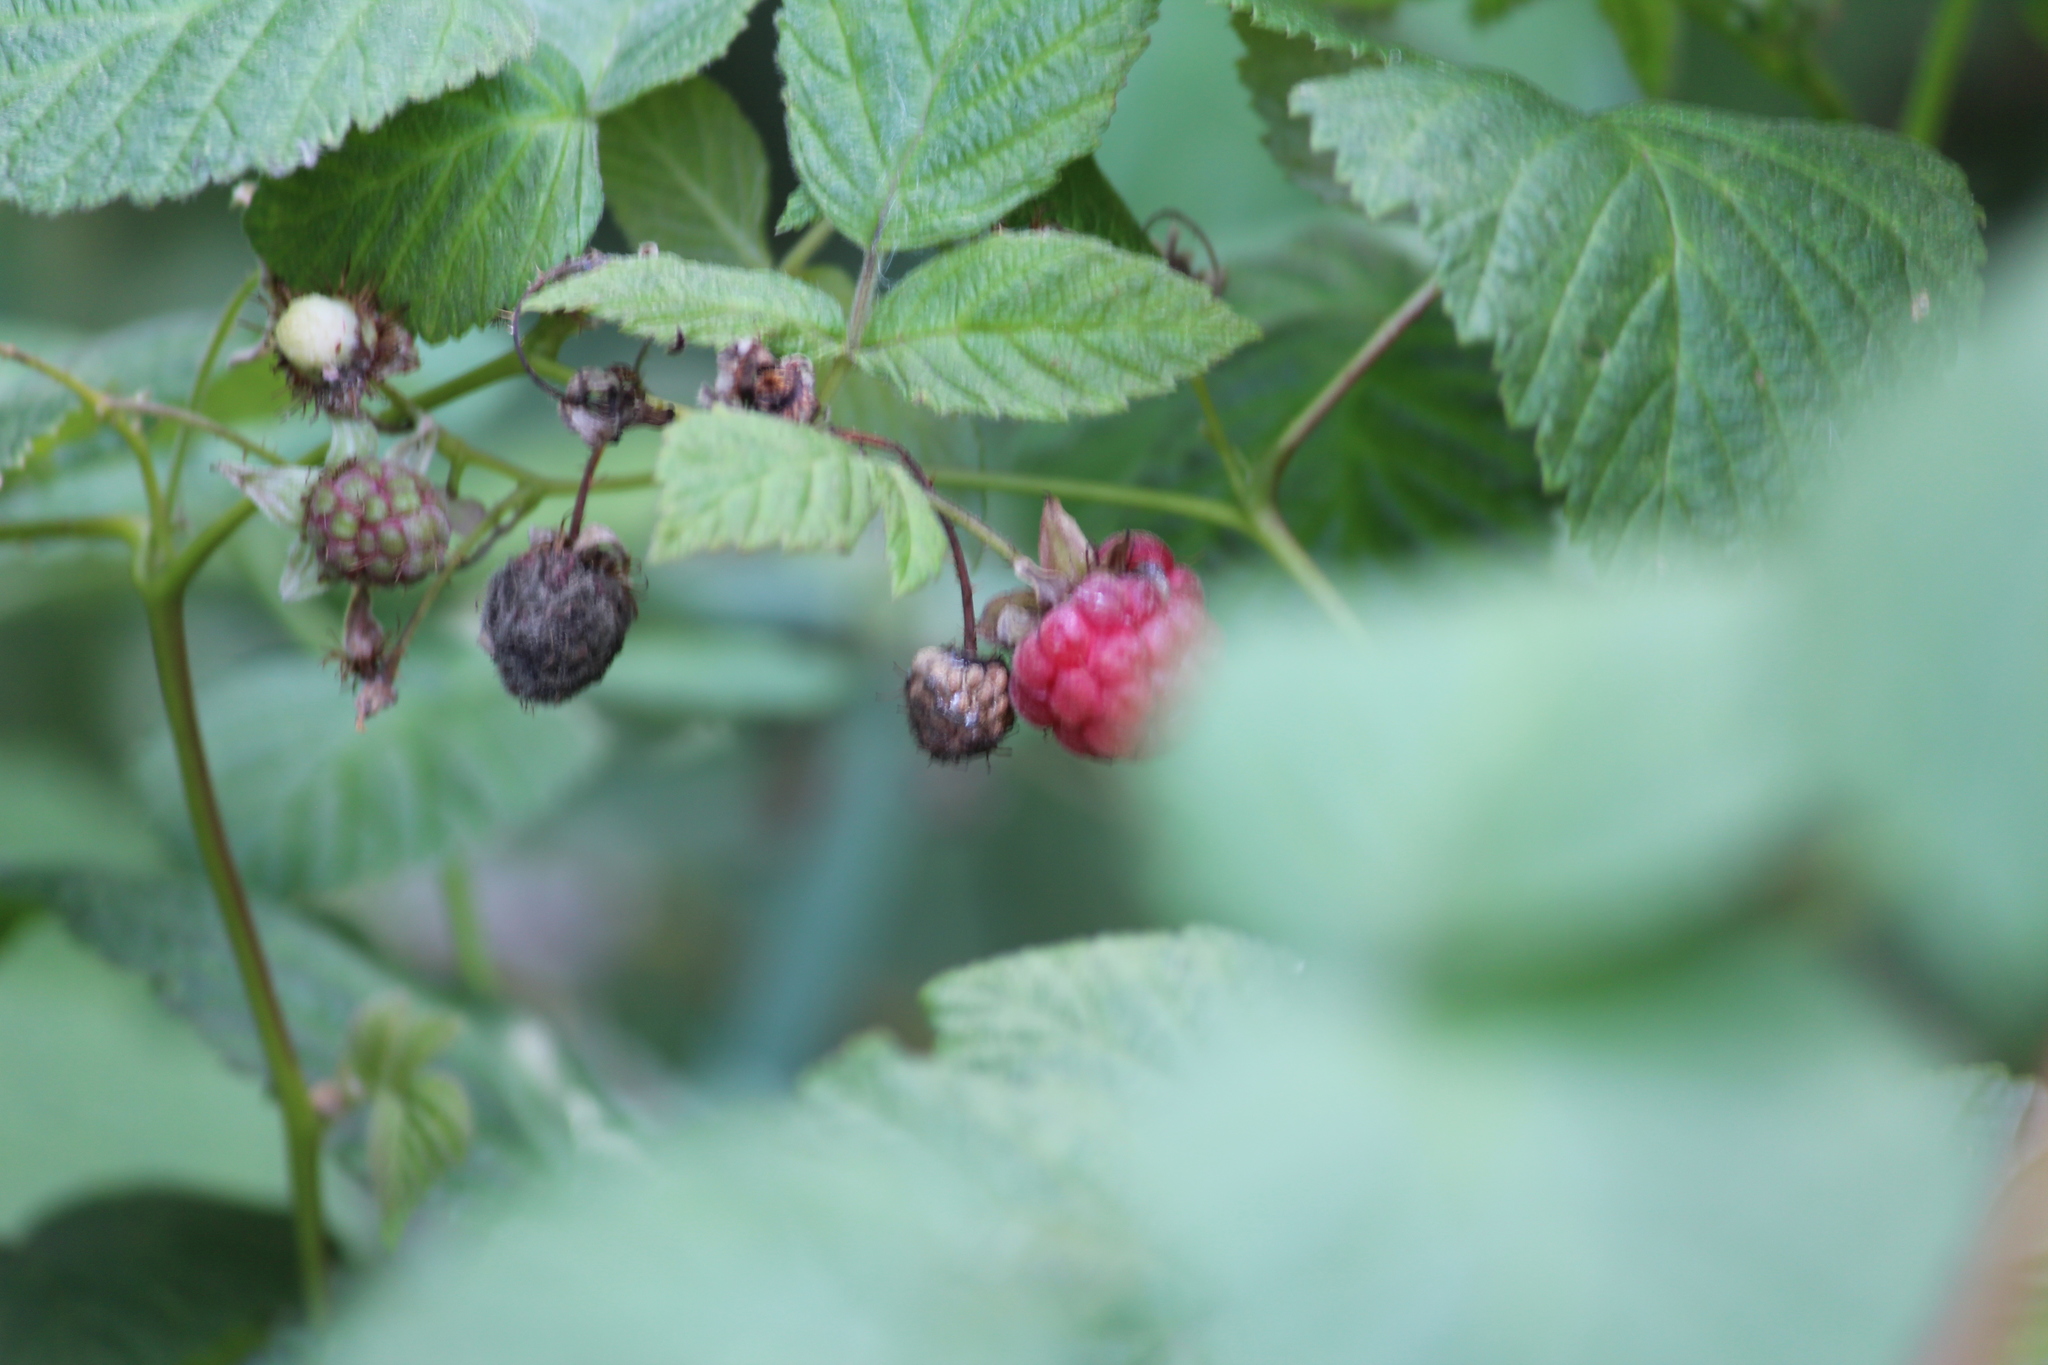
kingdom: Plantae
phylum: Tracheophyta
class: Magnoliopsida
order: Rosales
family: Rosaceae
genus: Rubus
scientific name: Rubus idaeus
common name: Raspberry
